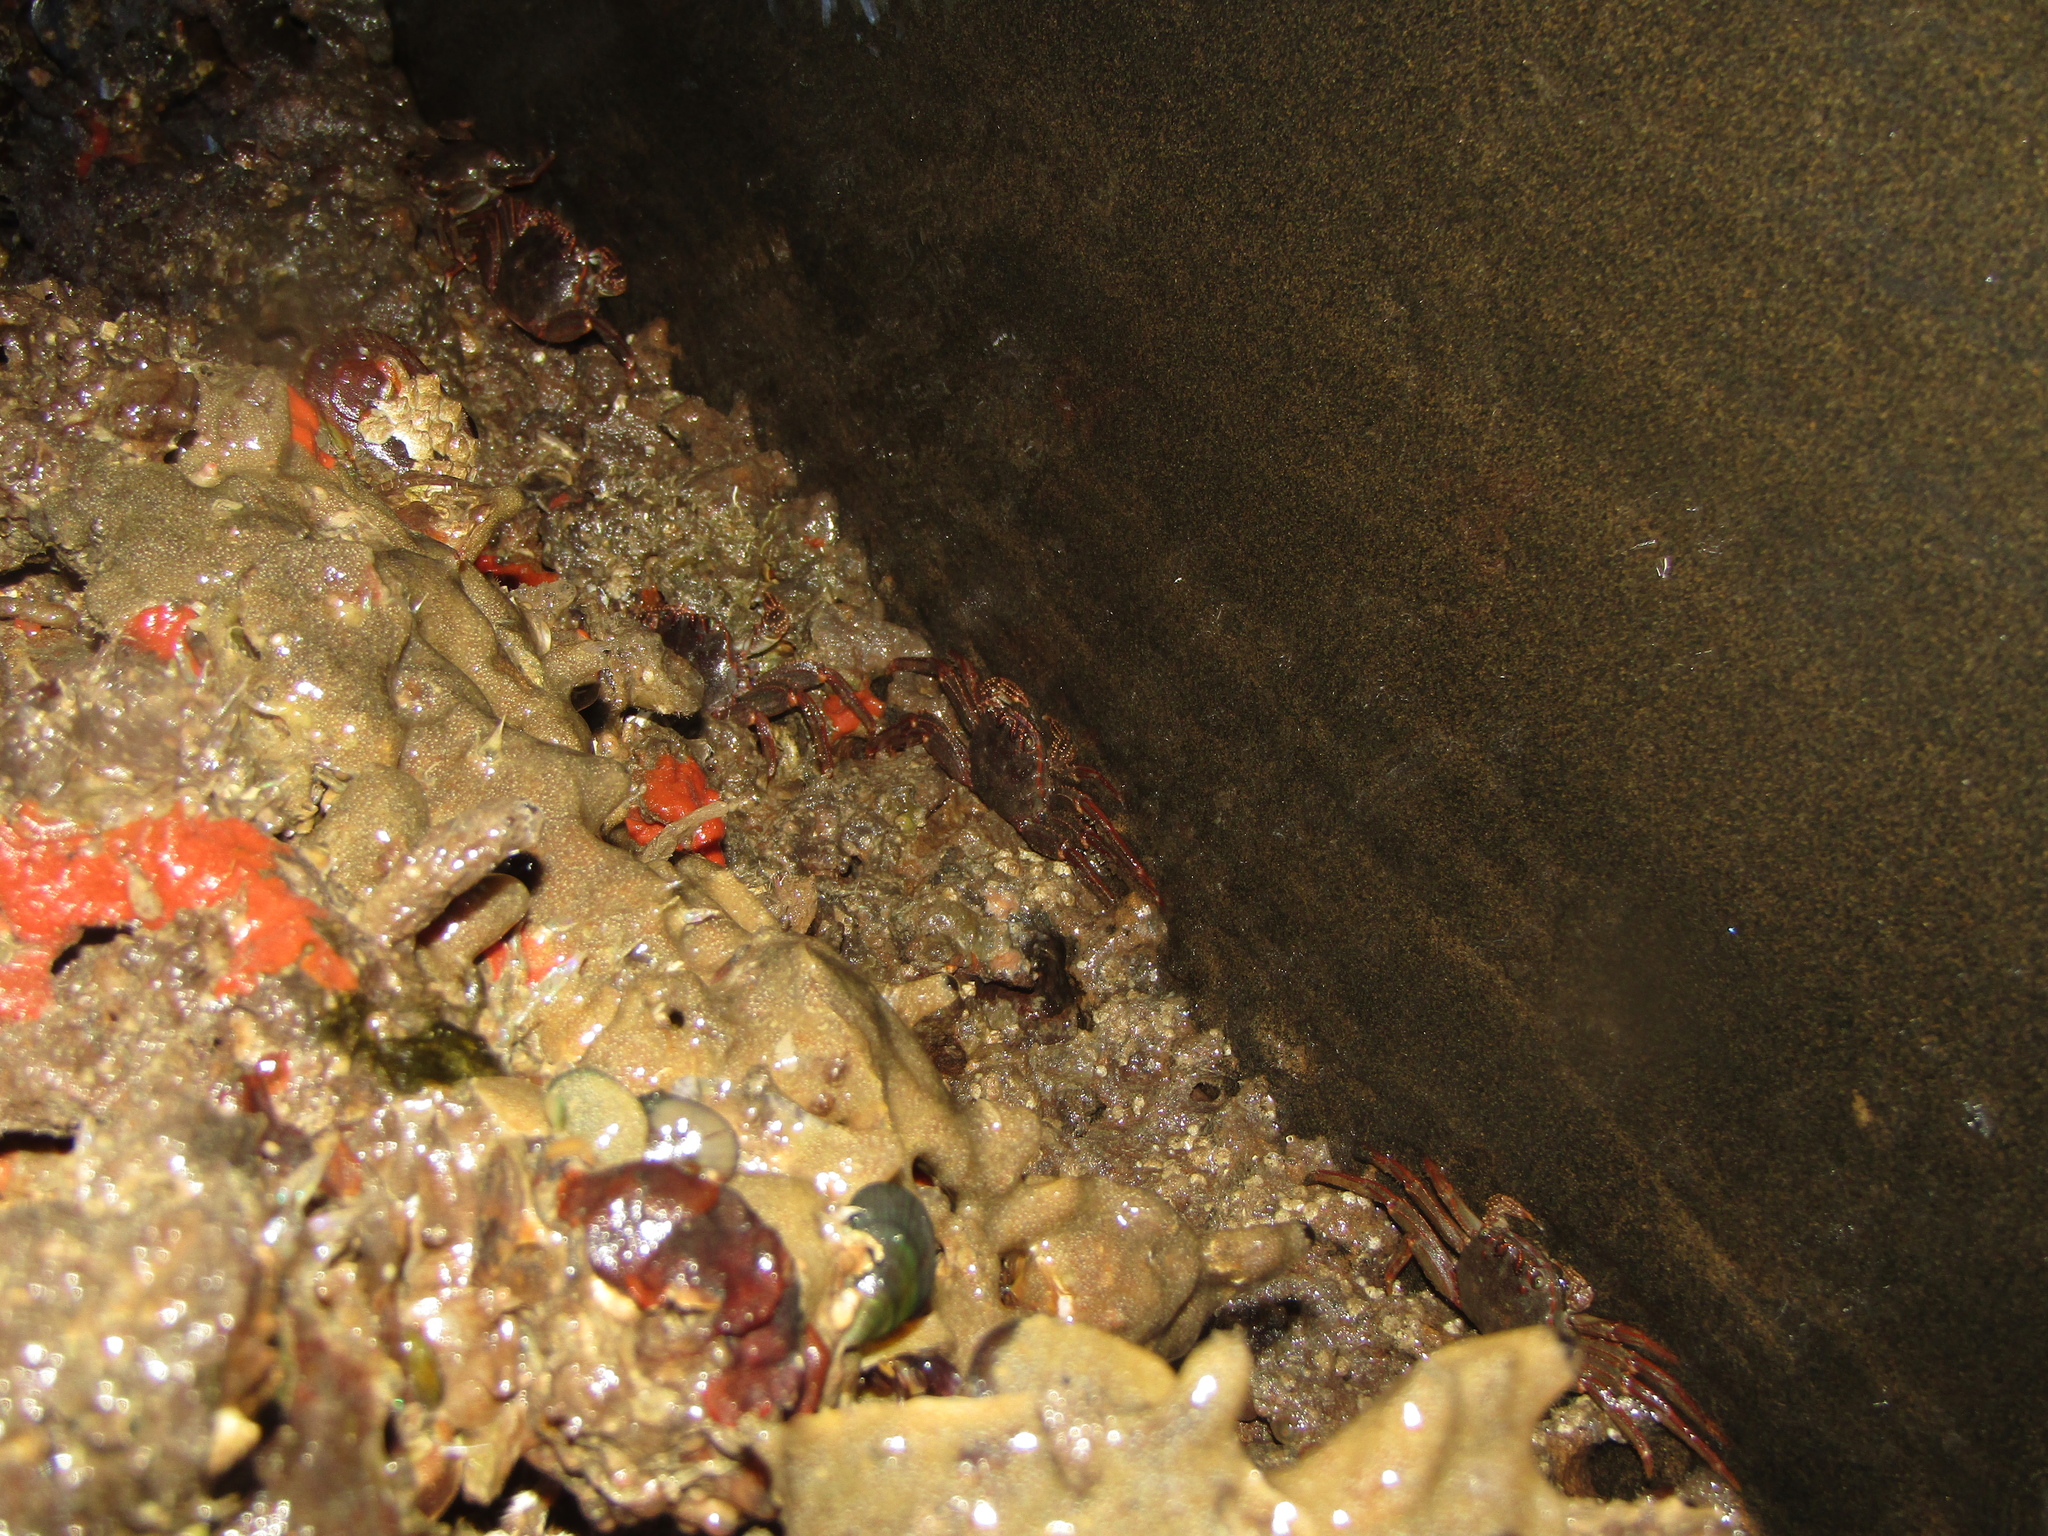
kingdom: Animalia
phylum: Arthropoda
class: Malacostraca
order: Decapoda
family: Plagusiidae
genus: Guinusia
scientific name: Guinusia chabrus
